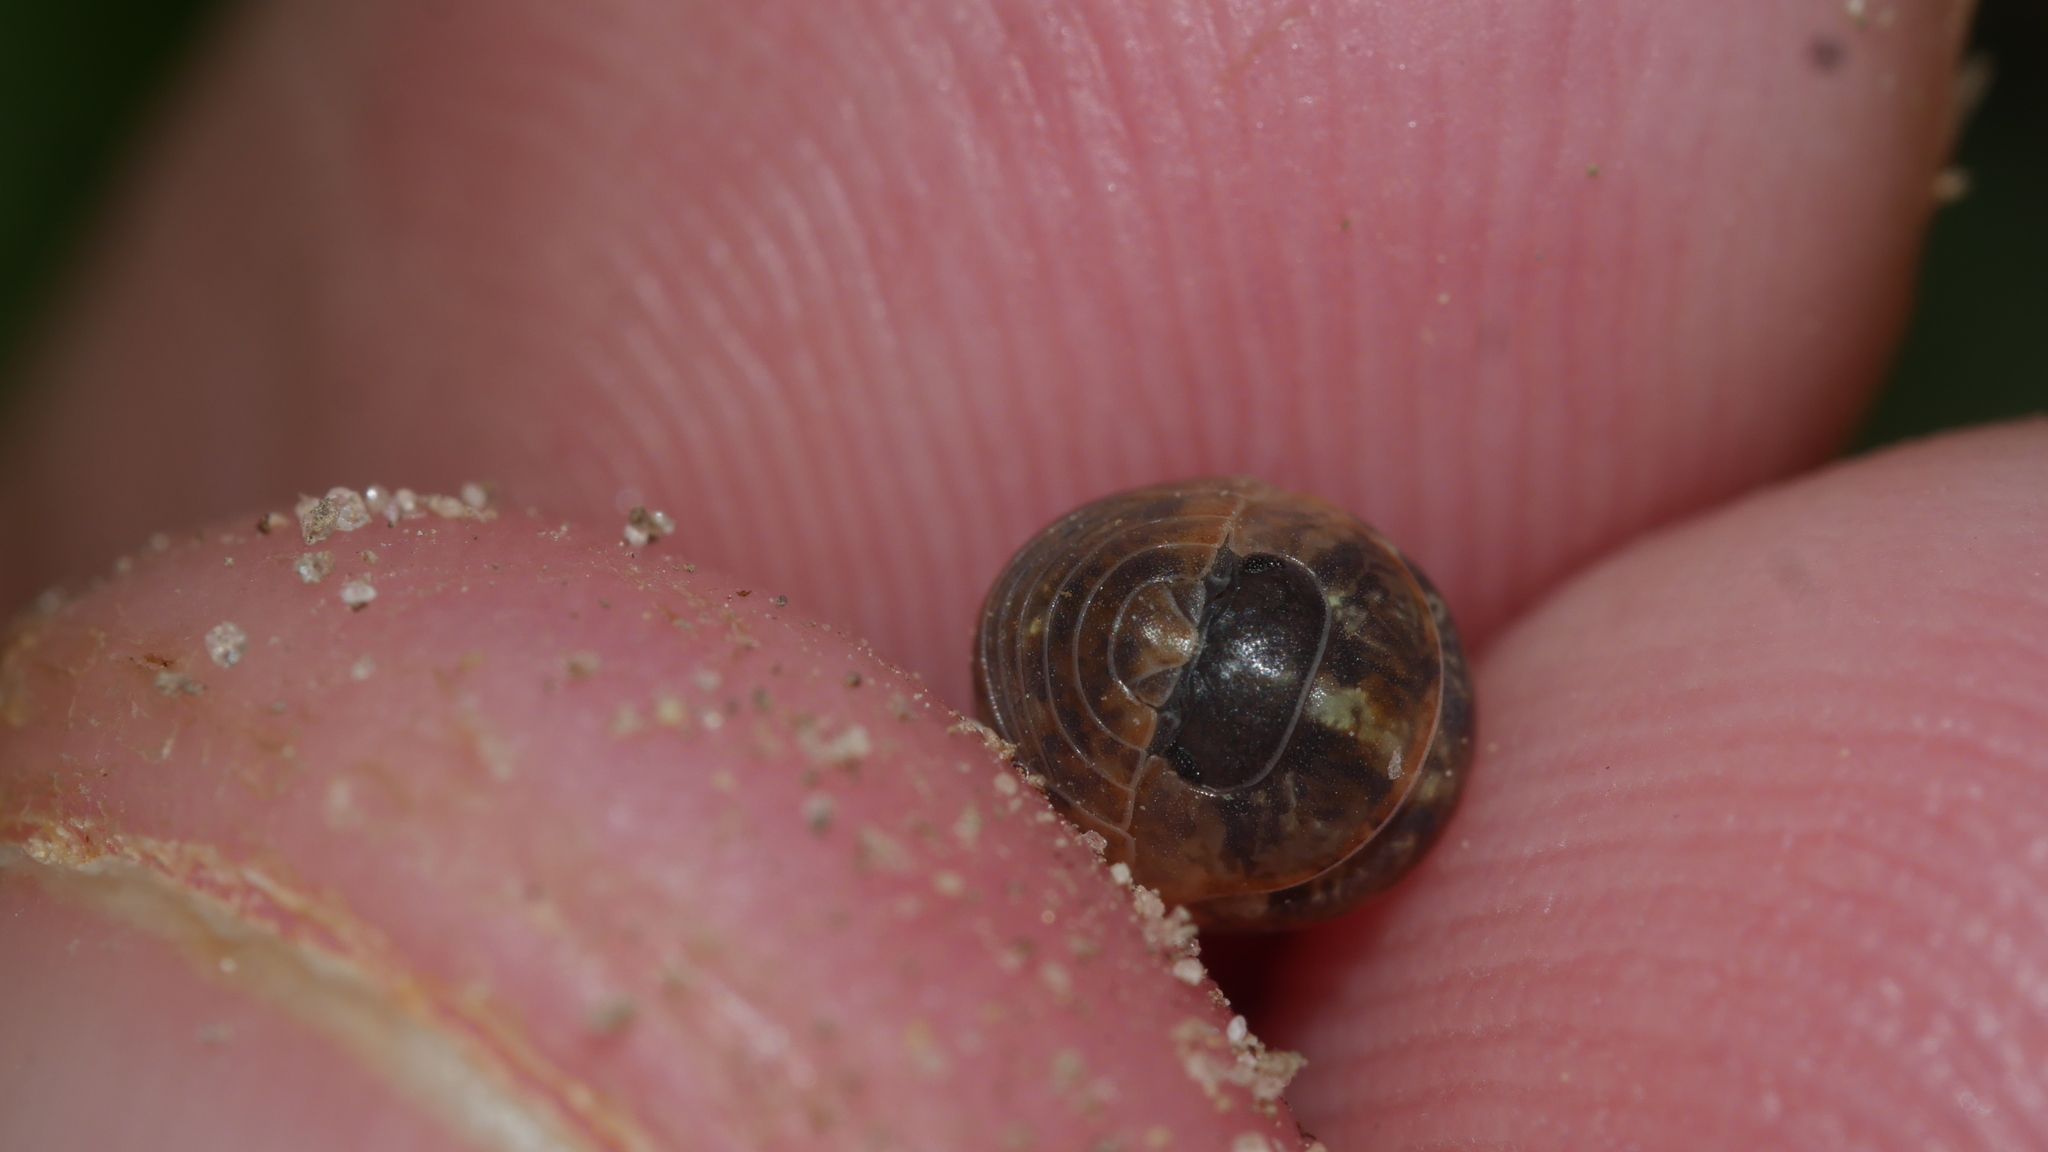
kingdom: Animalia
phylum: Arthropoda
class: Malacostraca
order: Isopoda
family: Armadillidiidae
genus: Armadillidium
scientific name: Armadillidium vulgare
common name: Common pill woodlouse
